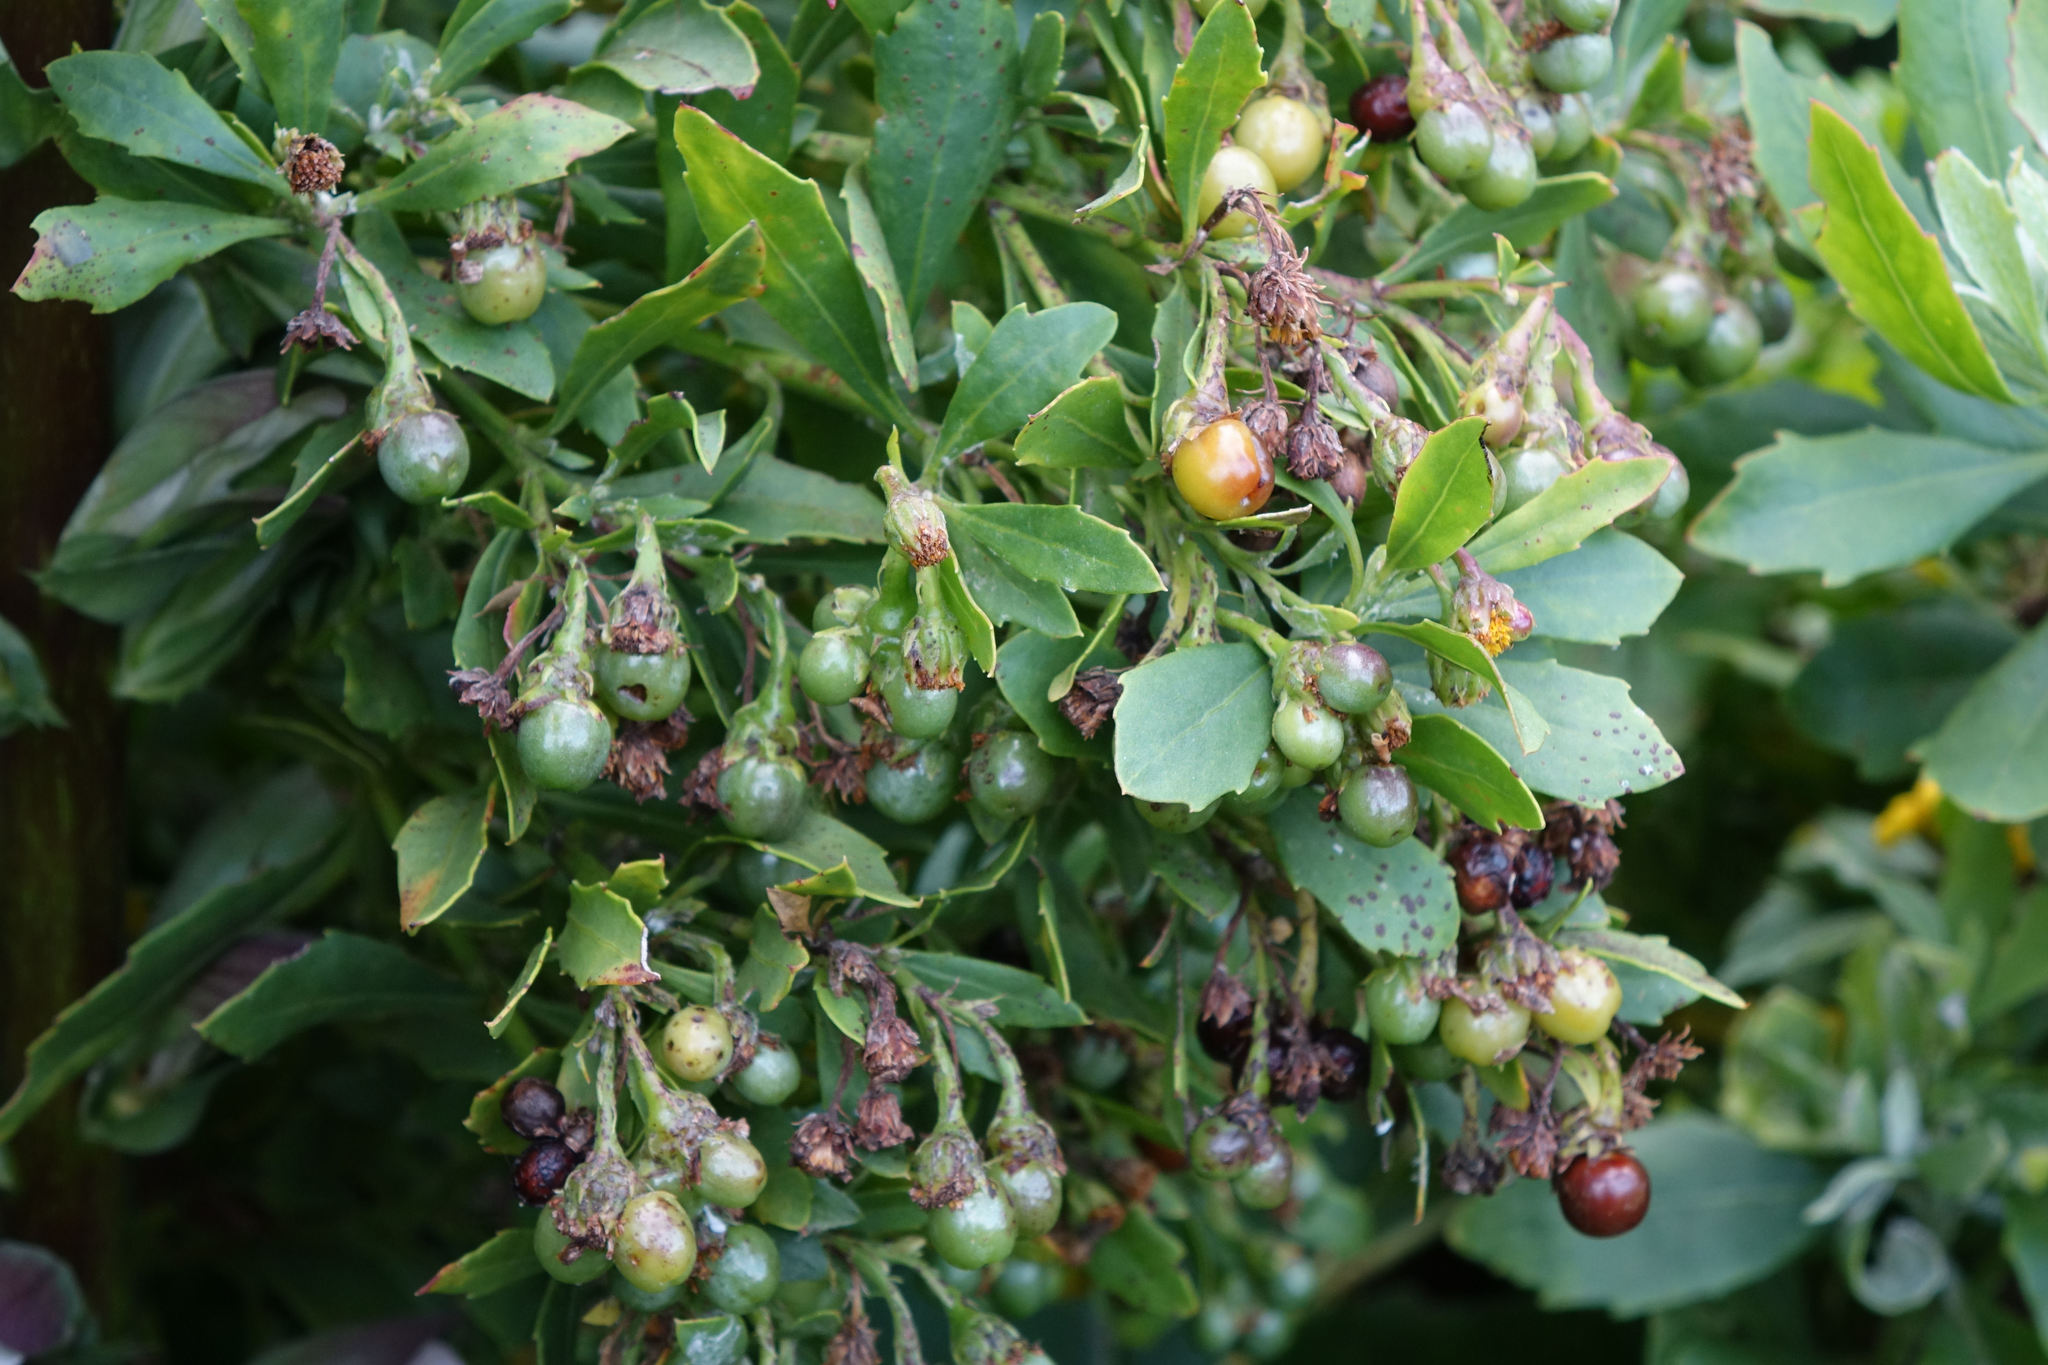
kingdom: Plantae
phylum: Tracheophyta
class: Magnoliopsida
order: Asterales
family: Asteraceae
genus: Osteospermum
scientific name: Osteospermum moniliferum
